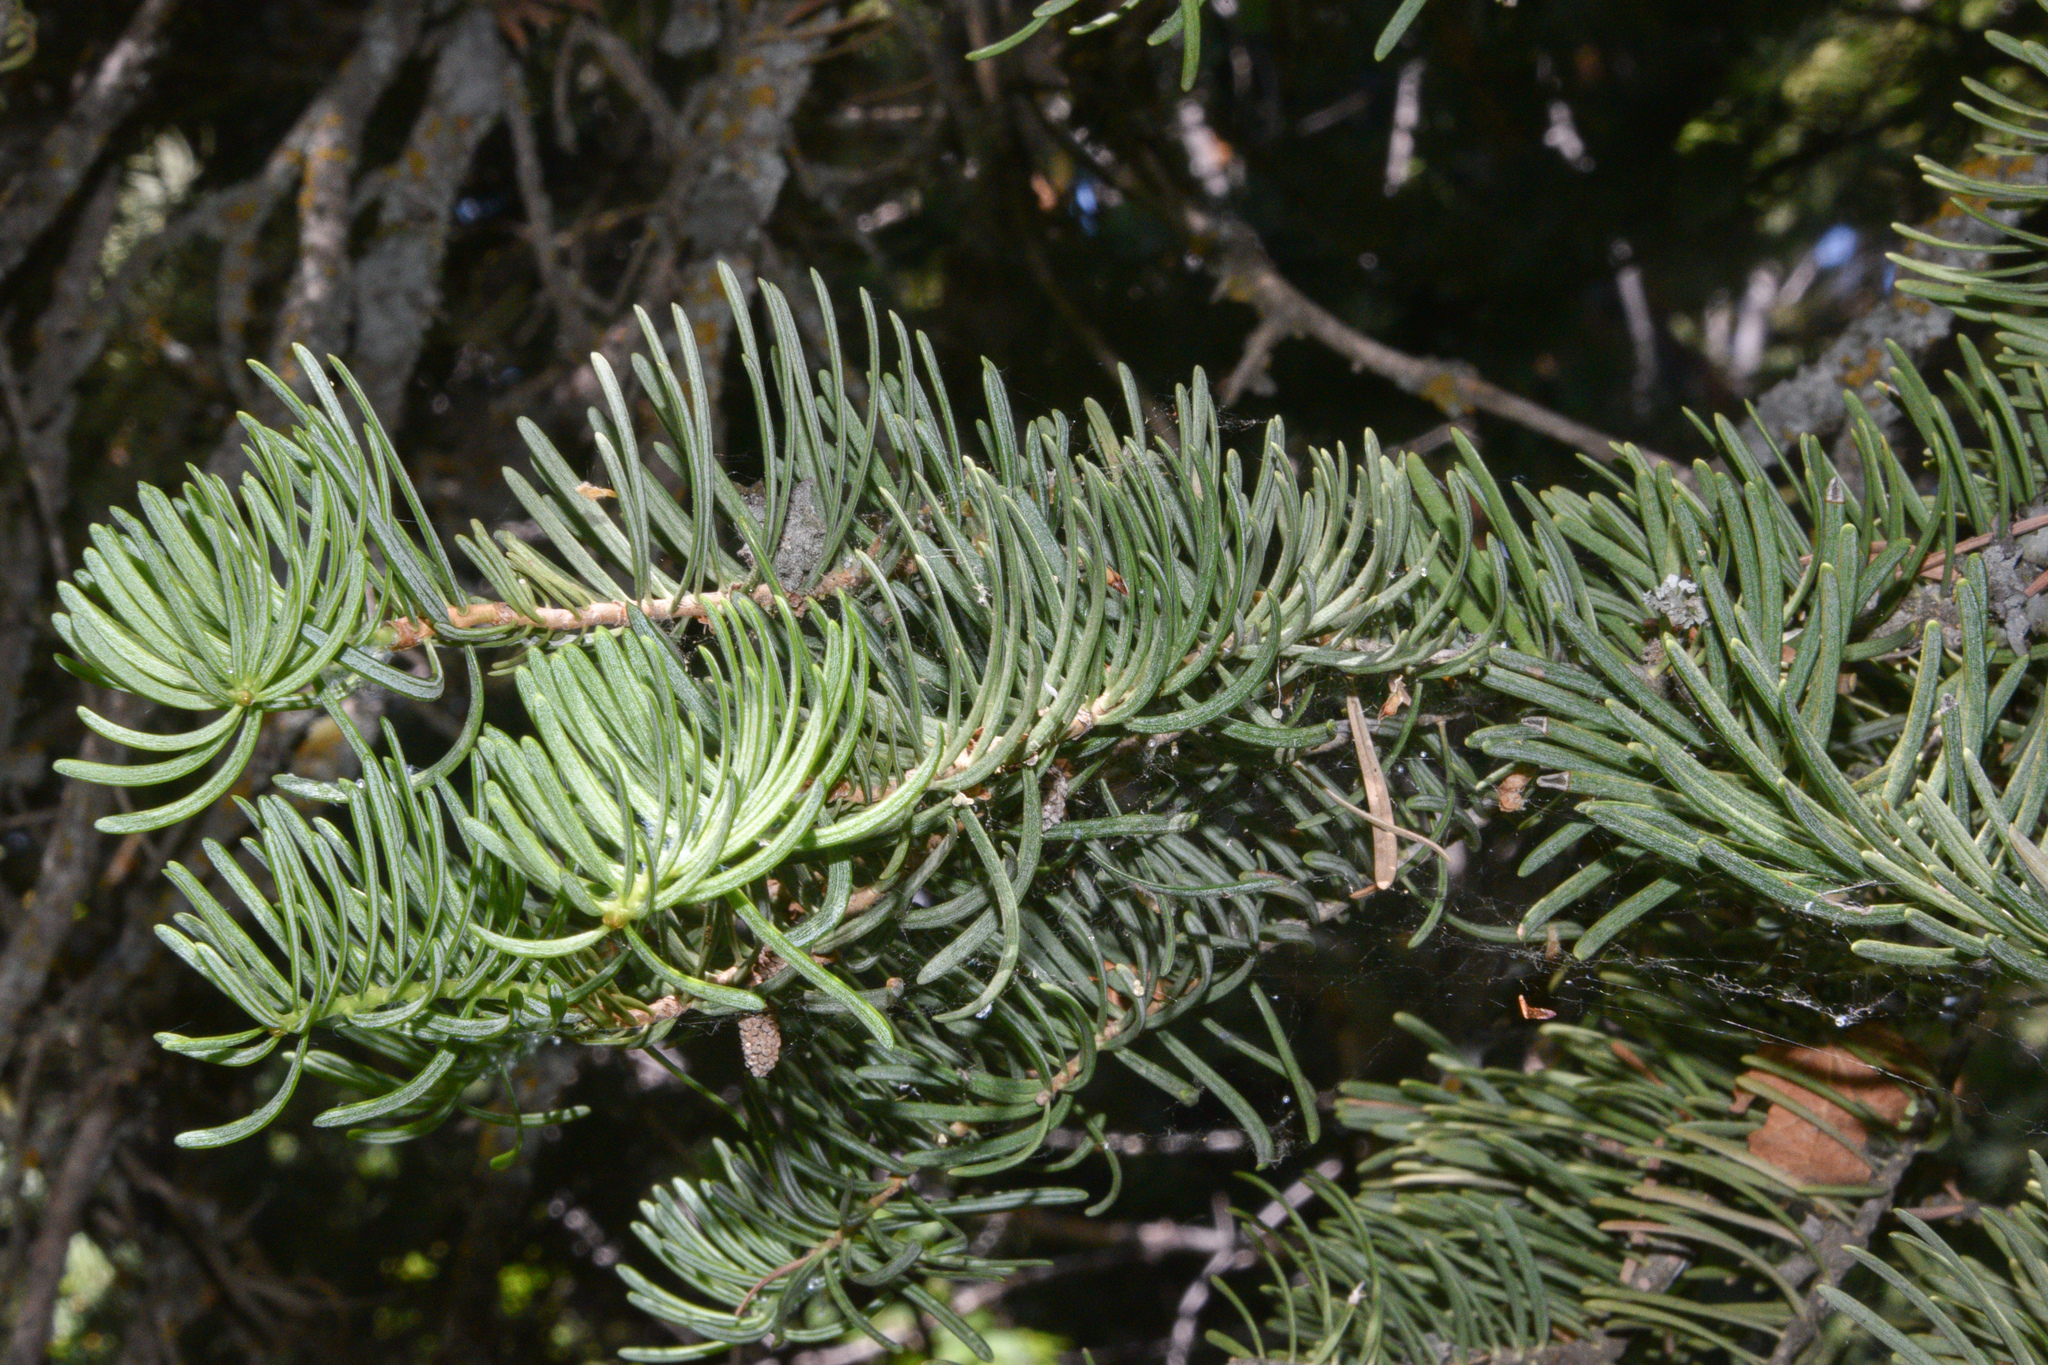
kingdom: Plantae
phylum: Tracheophyta
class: Pinopsida
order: Pinales
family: Pinaceae
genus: Abies
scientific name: Abies concolor
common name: Colorado fir
